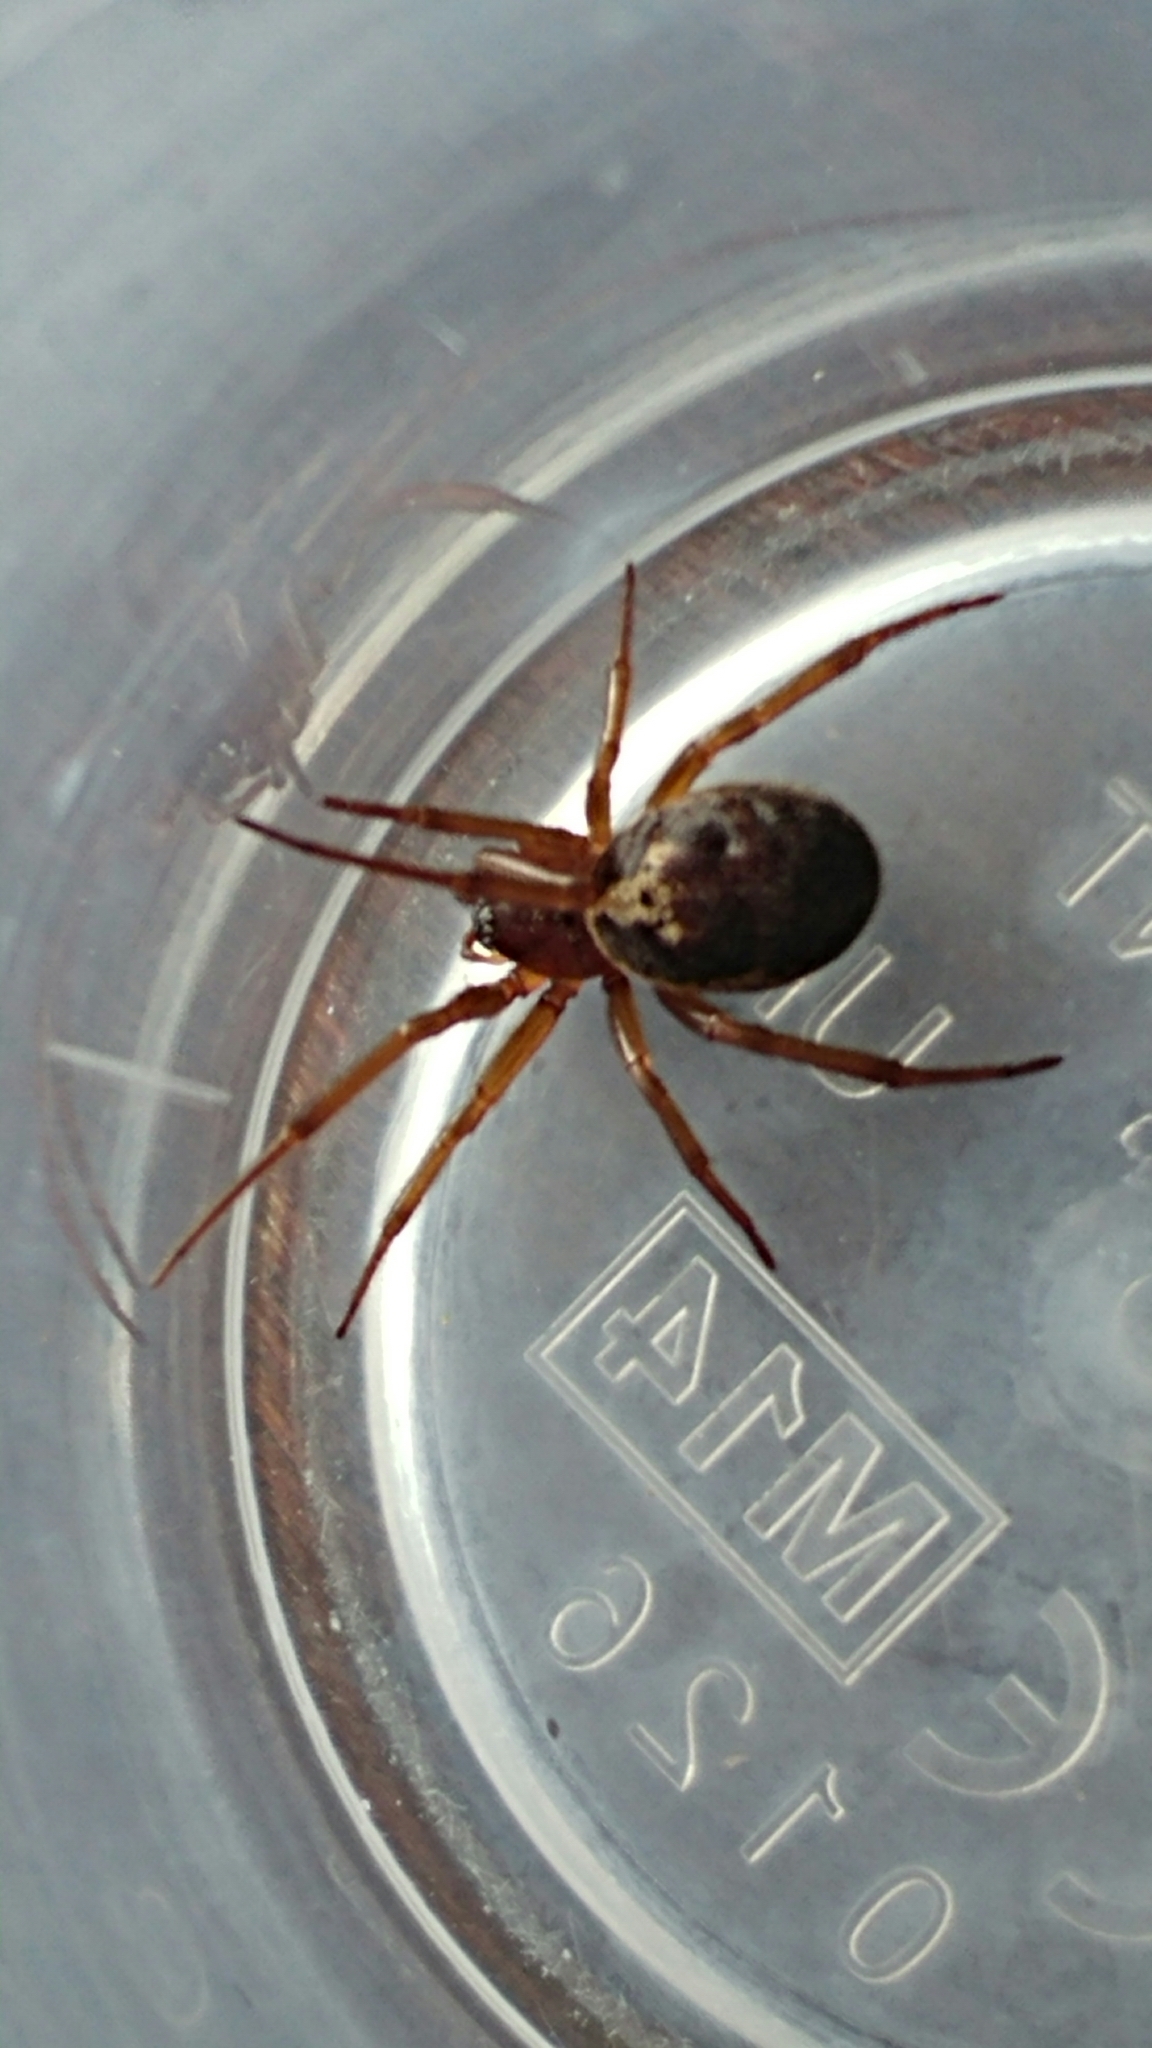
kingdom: Animalia
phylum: Arthropoda
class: Arachnida
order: Araneae
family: Theridiidae
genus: Steatoda
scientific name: Steatoda nobilis
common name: Cobweb weaver
